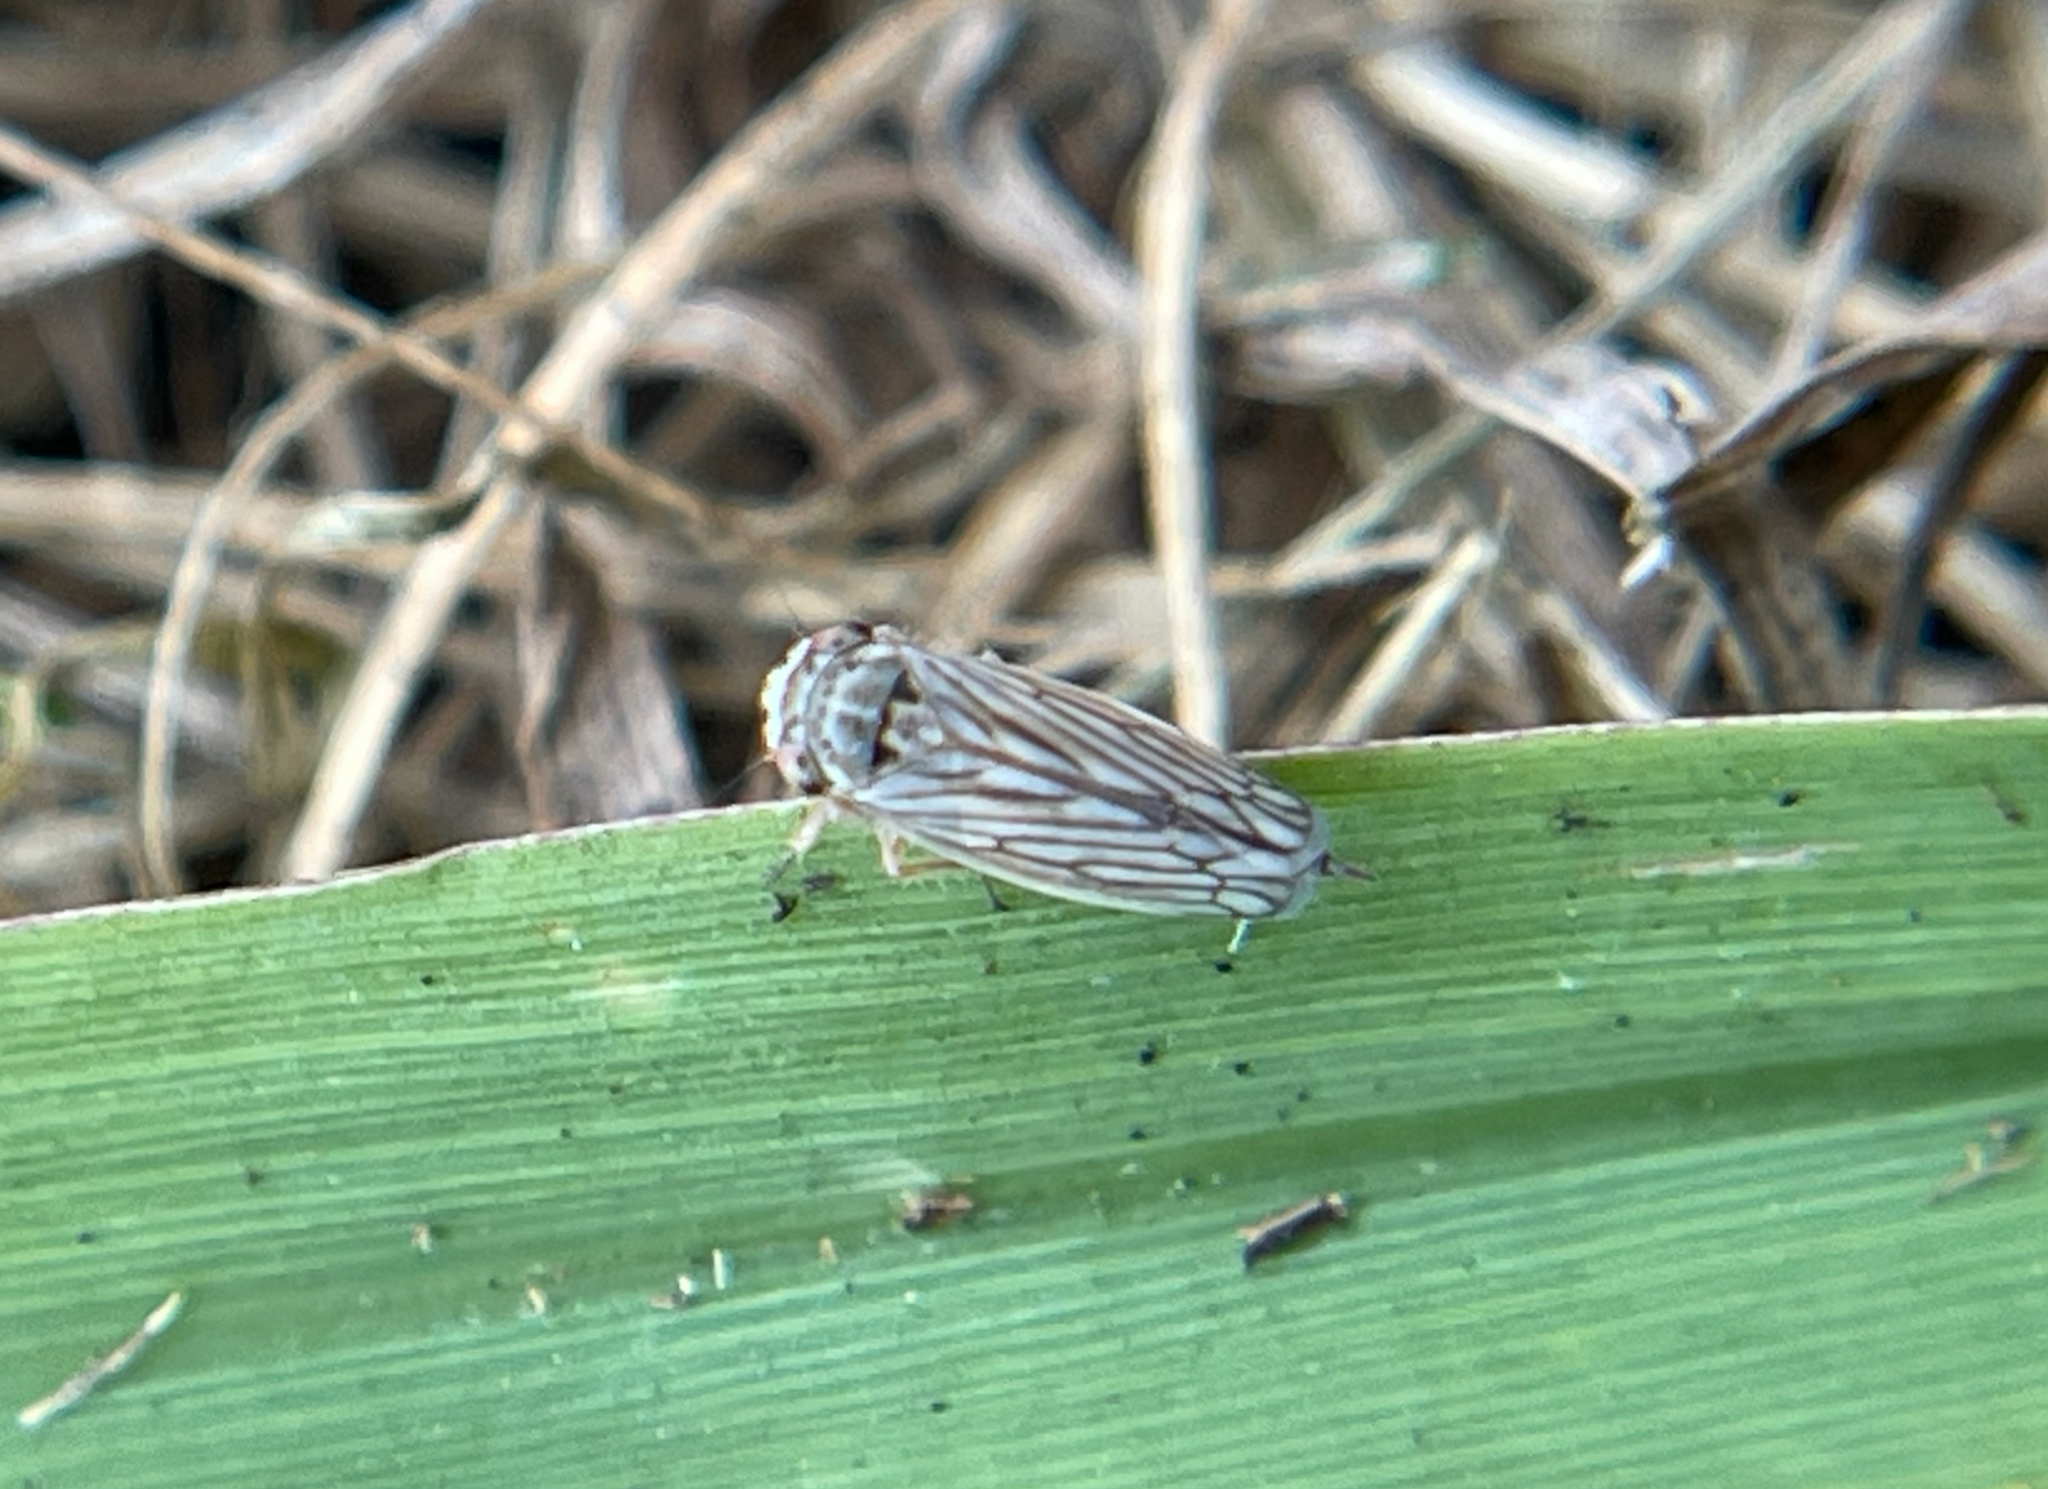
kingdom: Animalia
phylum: Arthropoda
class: Insecta
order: Hemiptera
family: Cicadellidae
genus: Exitianus
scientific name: Exitianus exitiosus
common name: Gray lawn leafhopper
